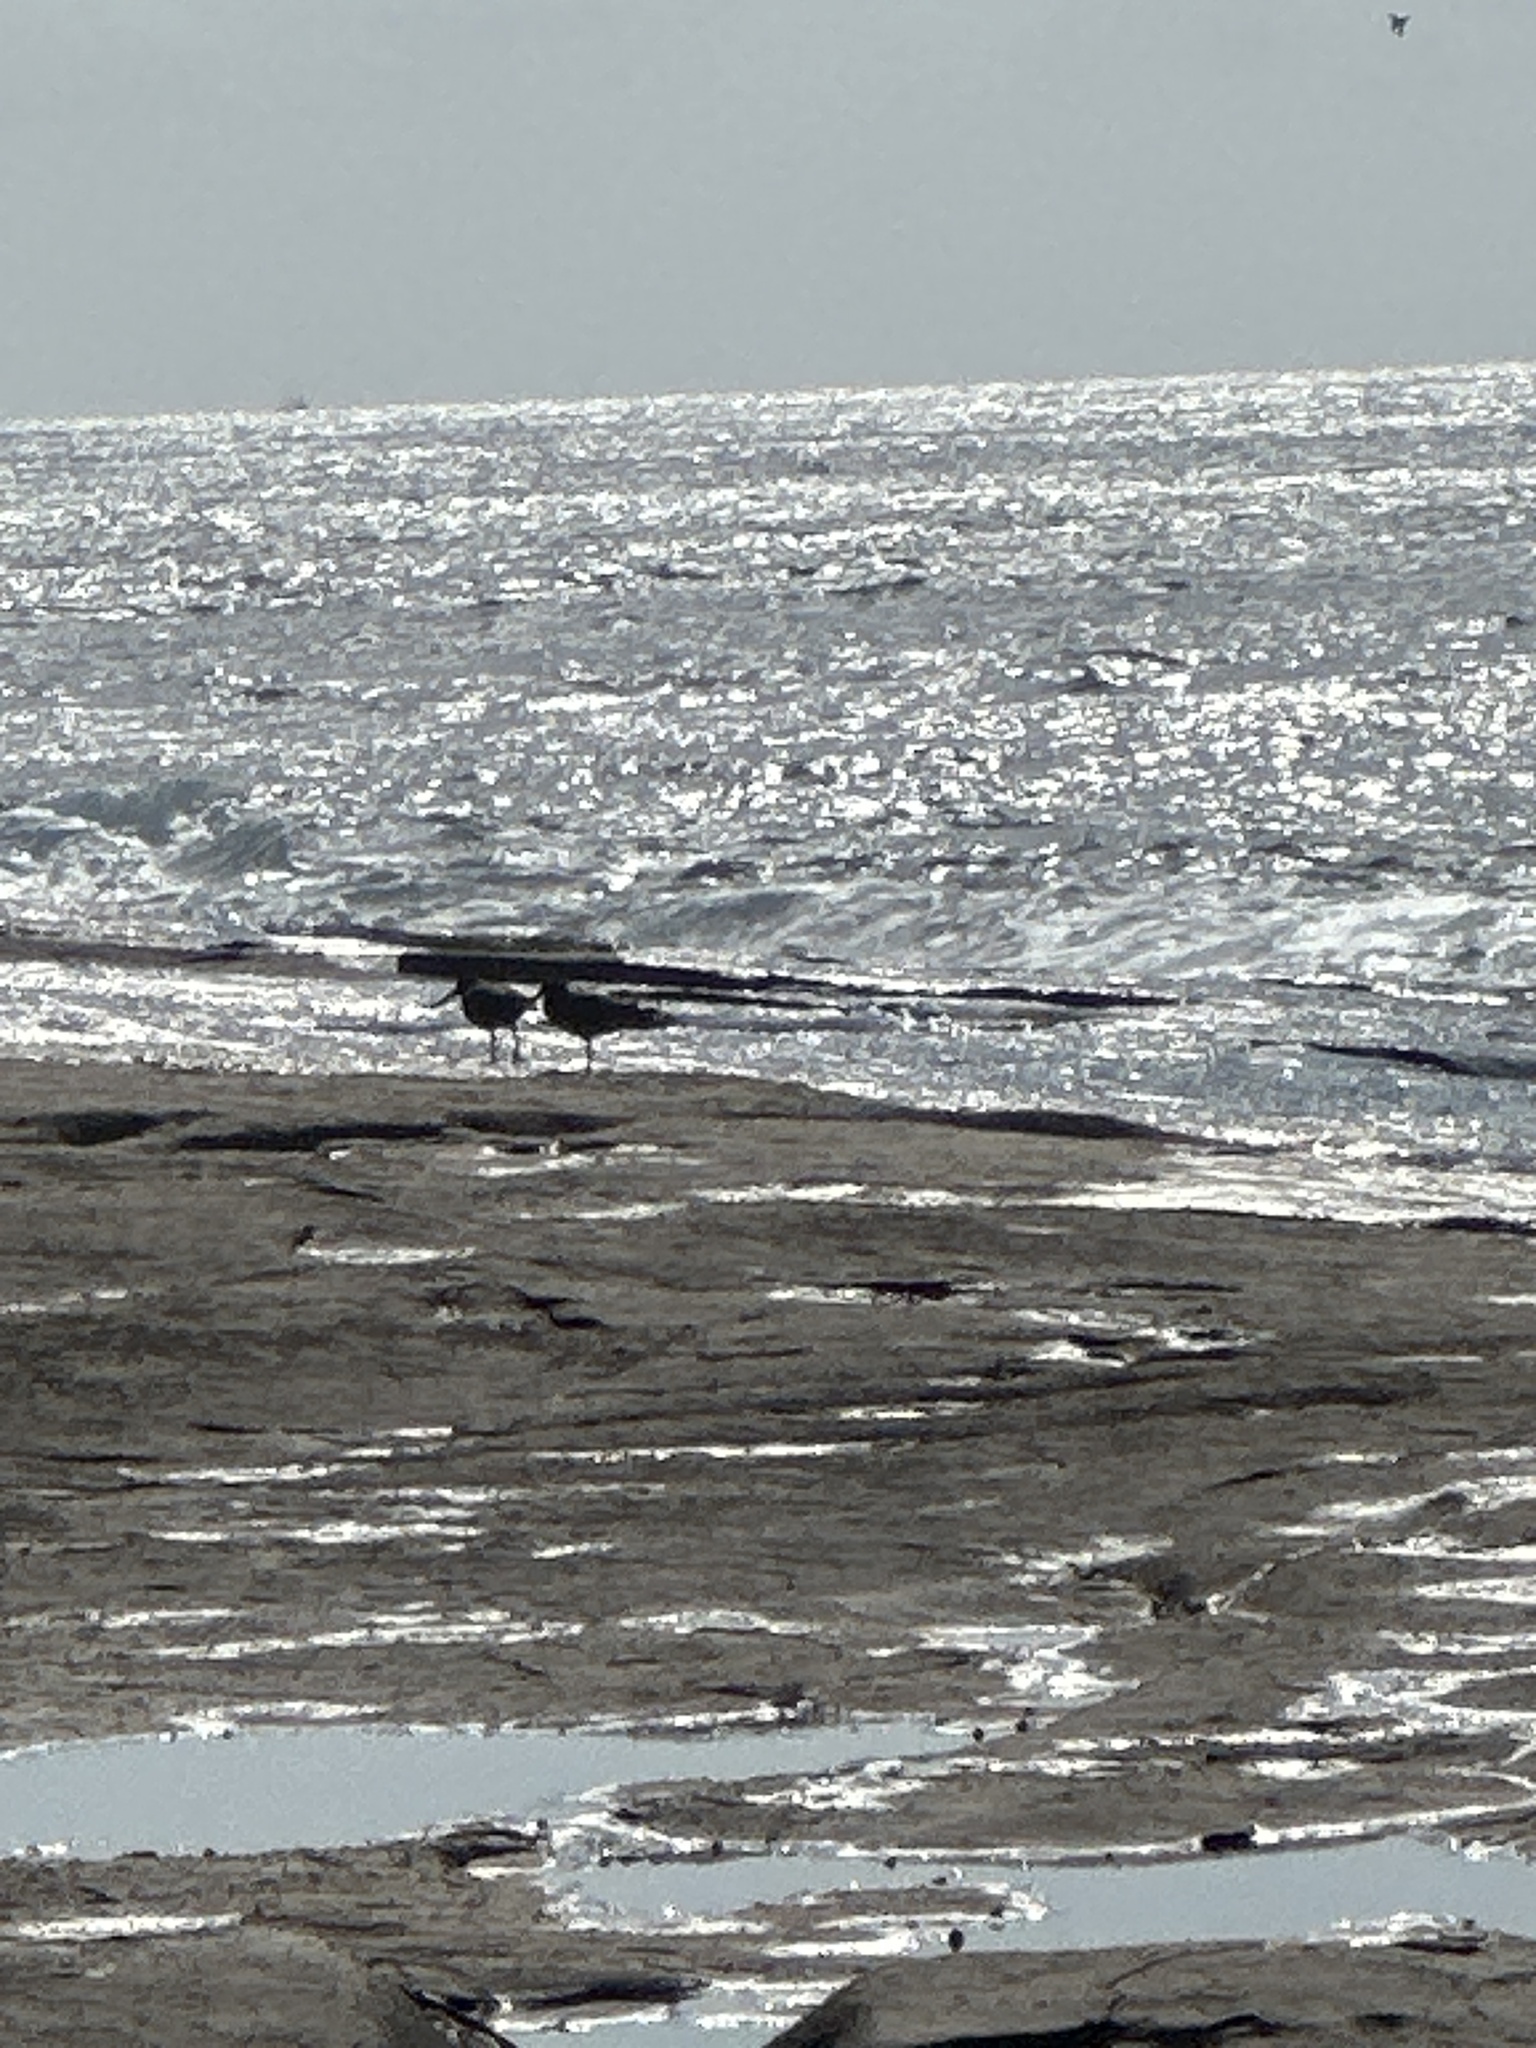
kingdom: Animalia
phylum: Chordata
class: Aves
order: Charadriiformes
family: Haematopodidae
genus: Haematopus
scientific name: Haematopus fuliginosus
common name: Sooty oystercatcher
